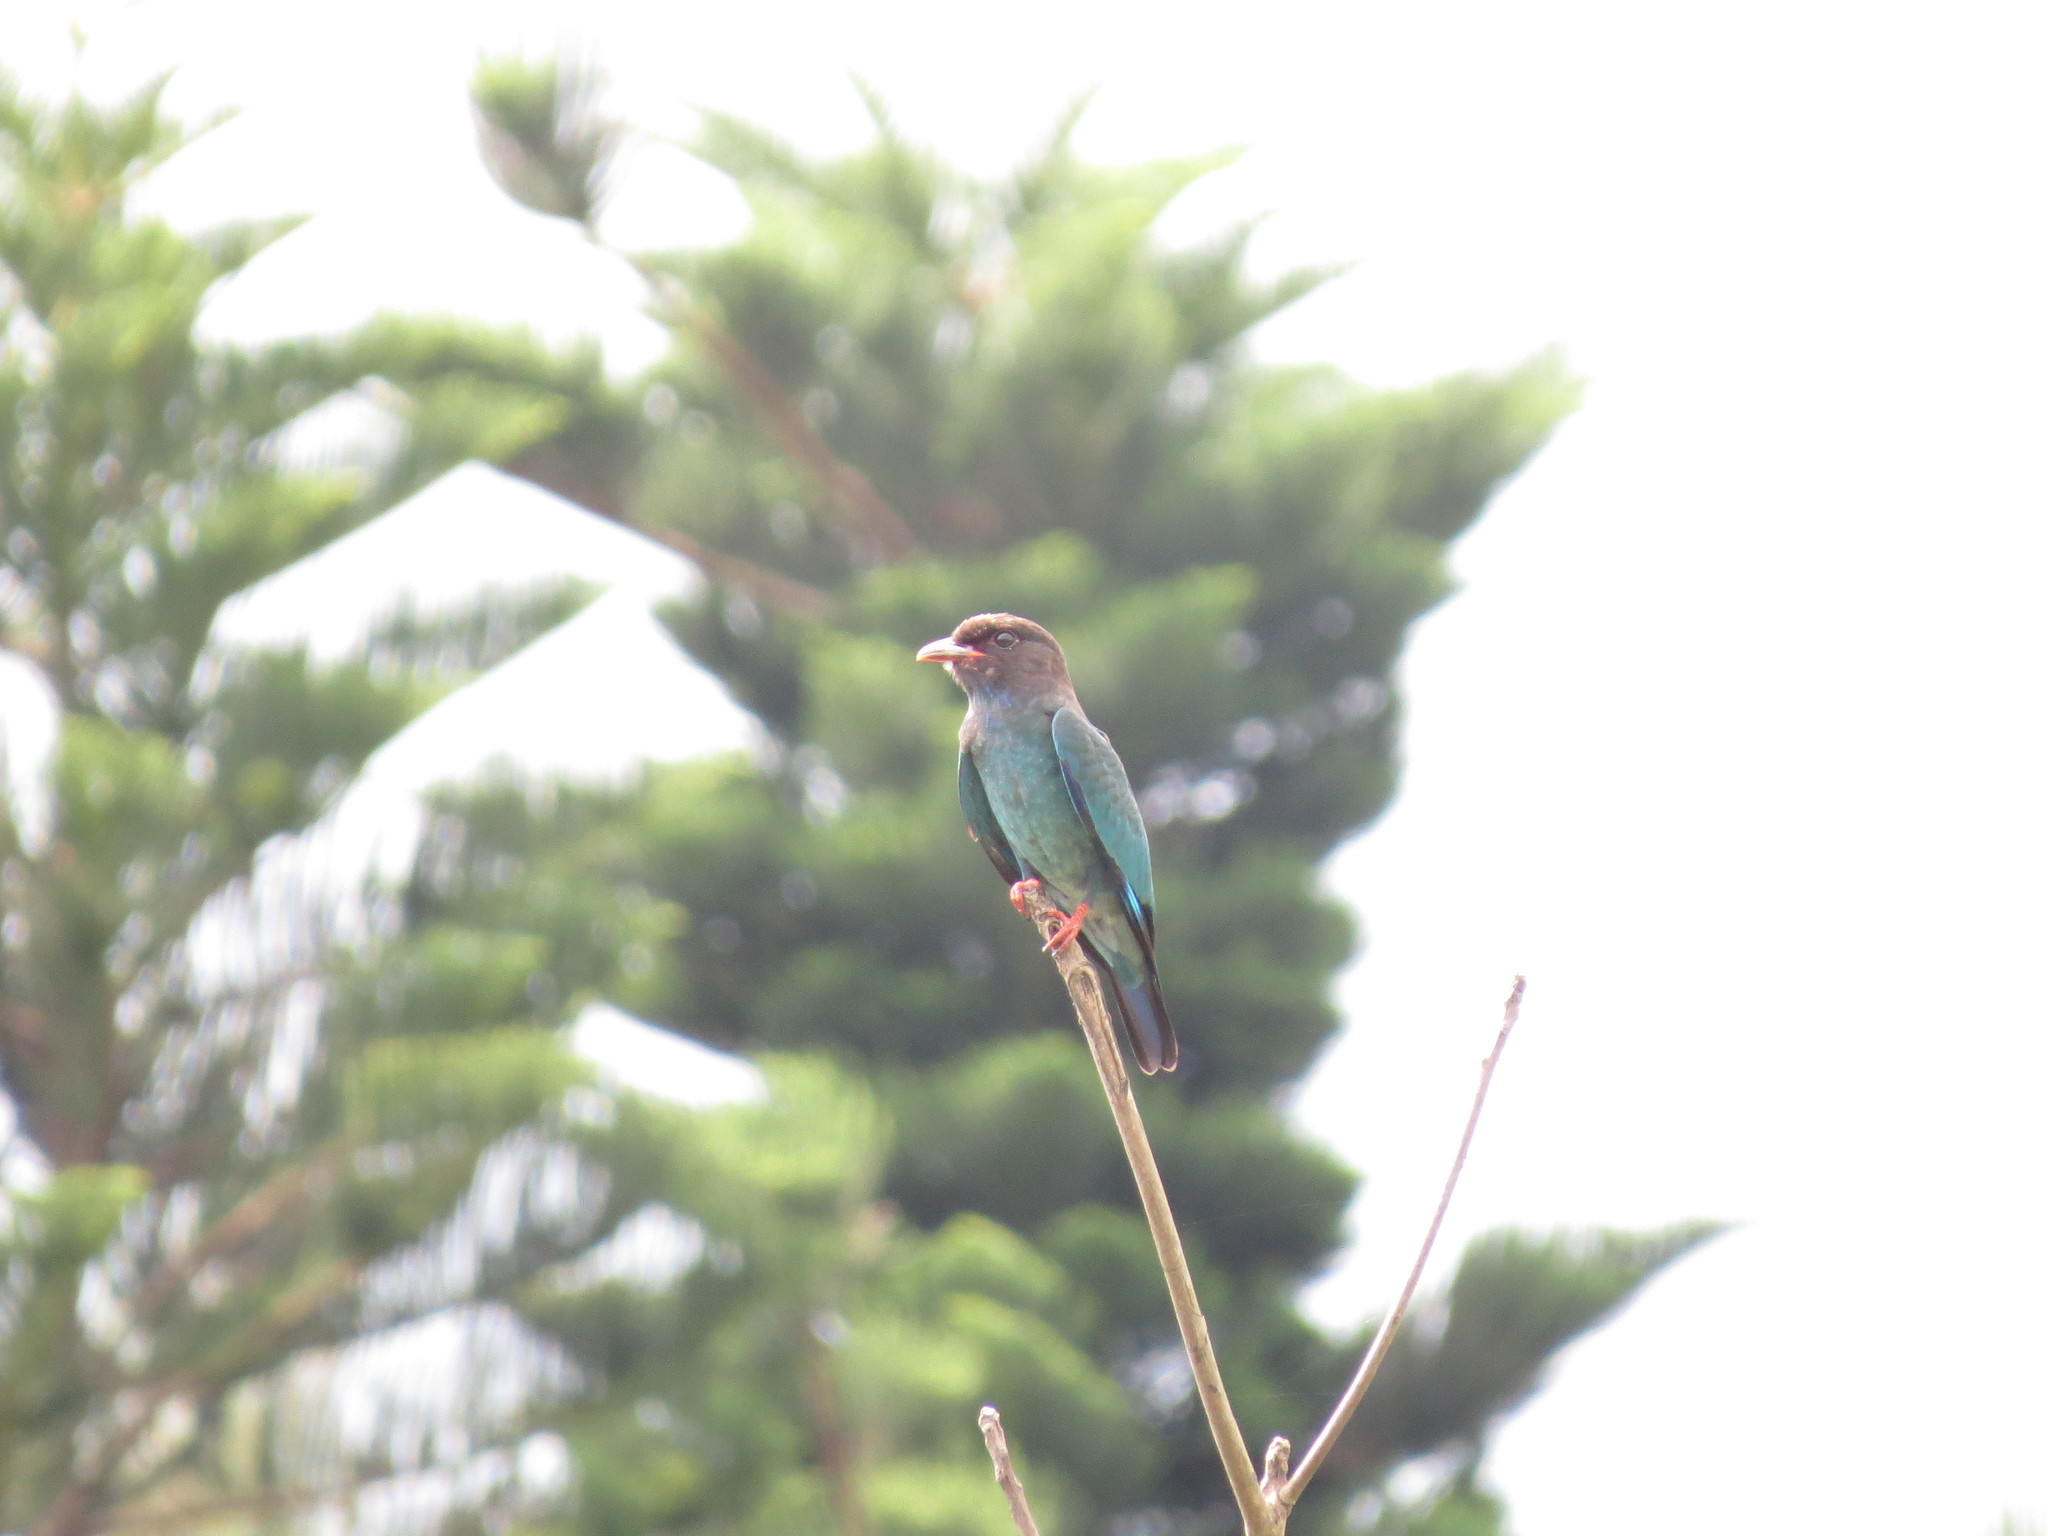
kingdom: Animalia
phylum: Chordata
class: Aves
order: Coraciiformes
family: Coraciidae
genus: Eurystomus
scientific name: Eurystomus orientalis
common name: Oriental dollarbird
